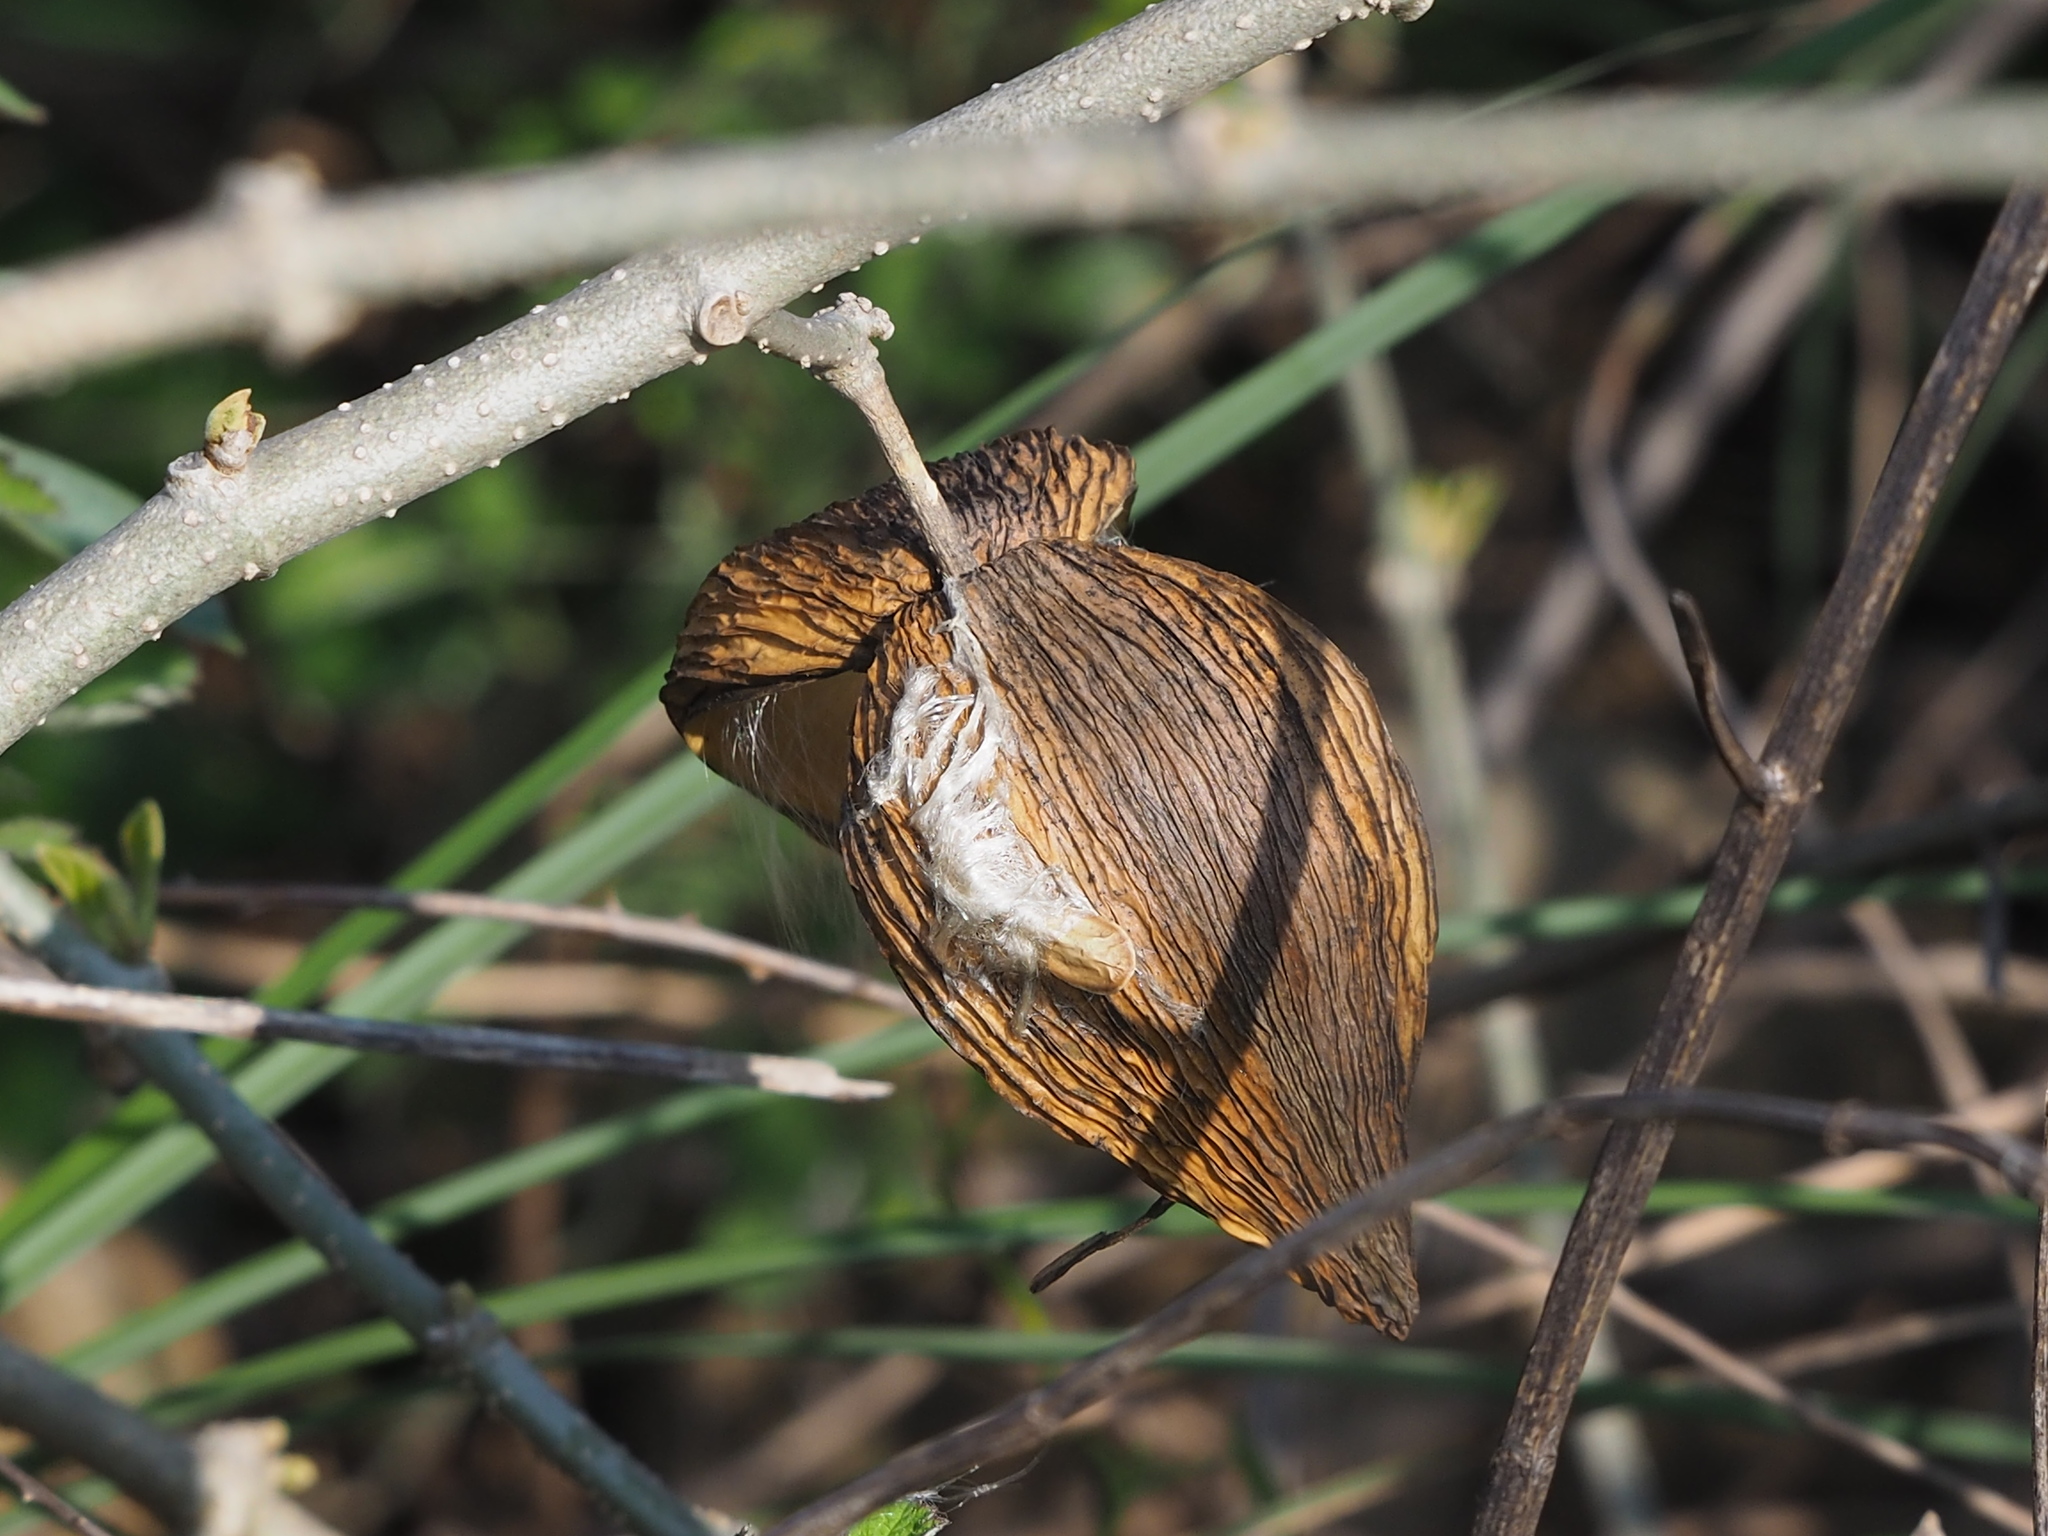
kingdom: Plantae
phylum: Tracheophyta
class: Magnoliopsida
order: Gentianales
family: Apocynaceae
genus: Stephanotis
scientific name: Stephanotis volubilis
